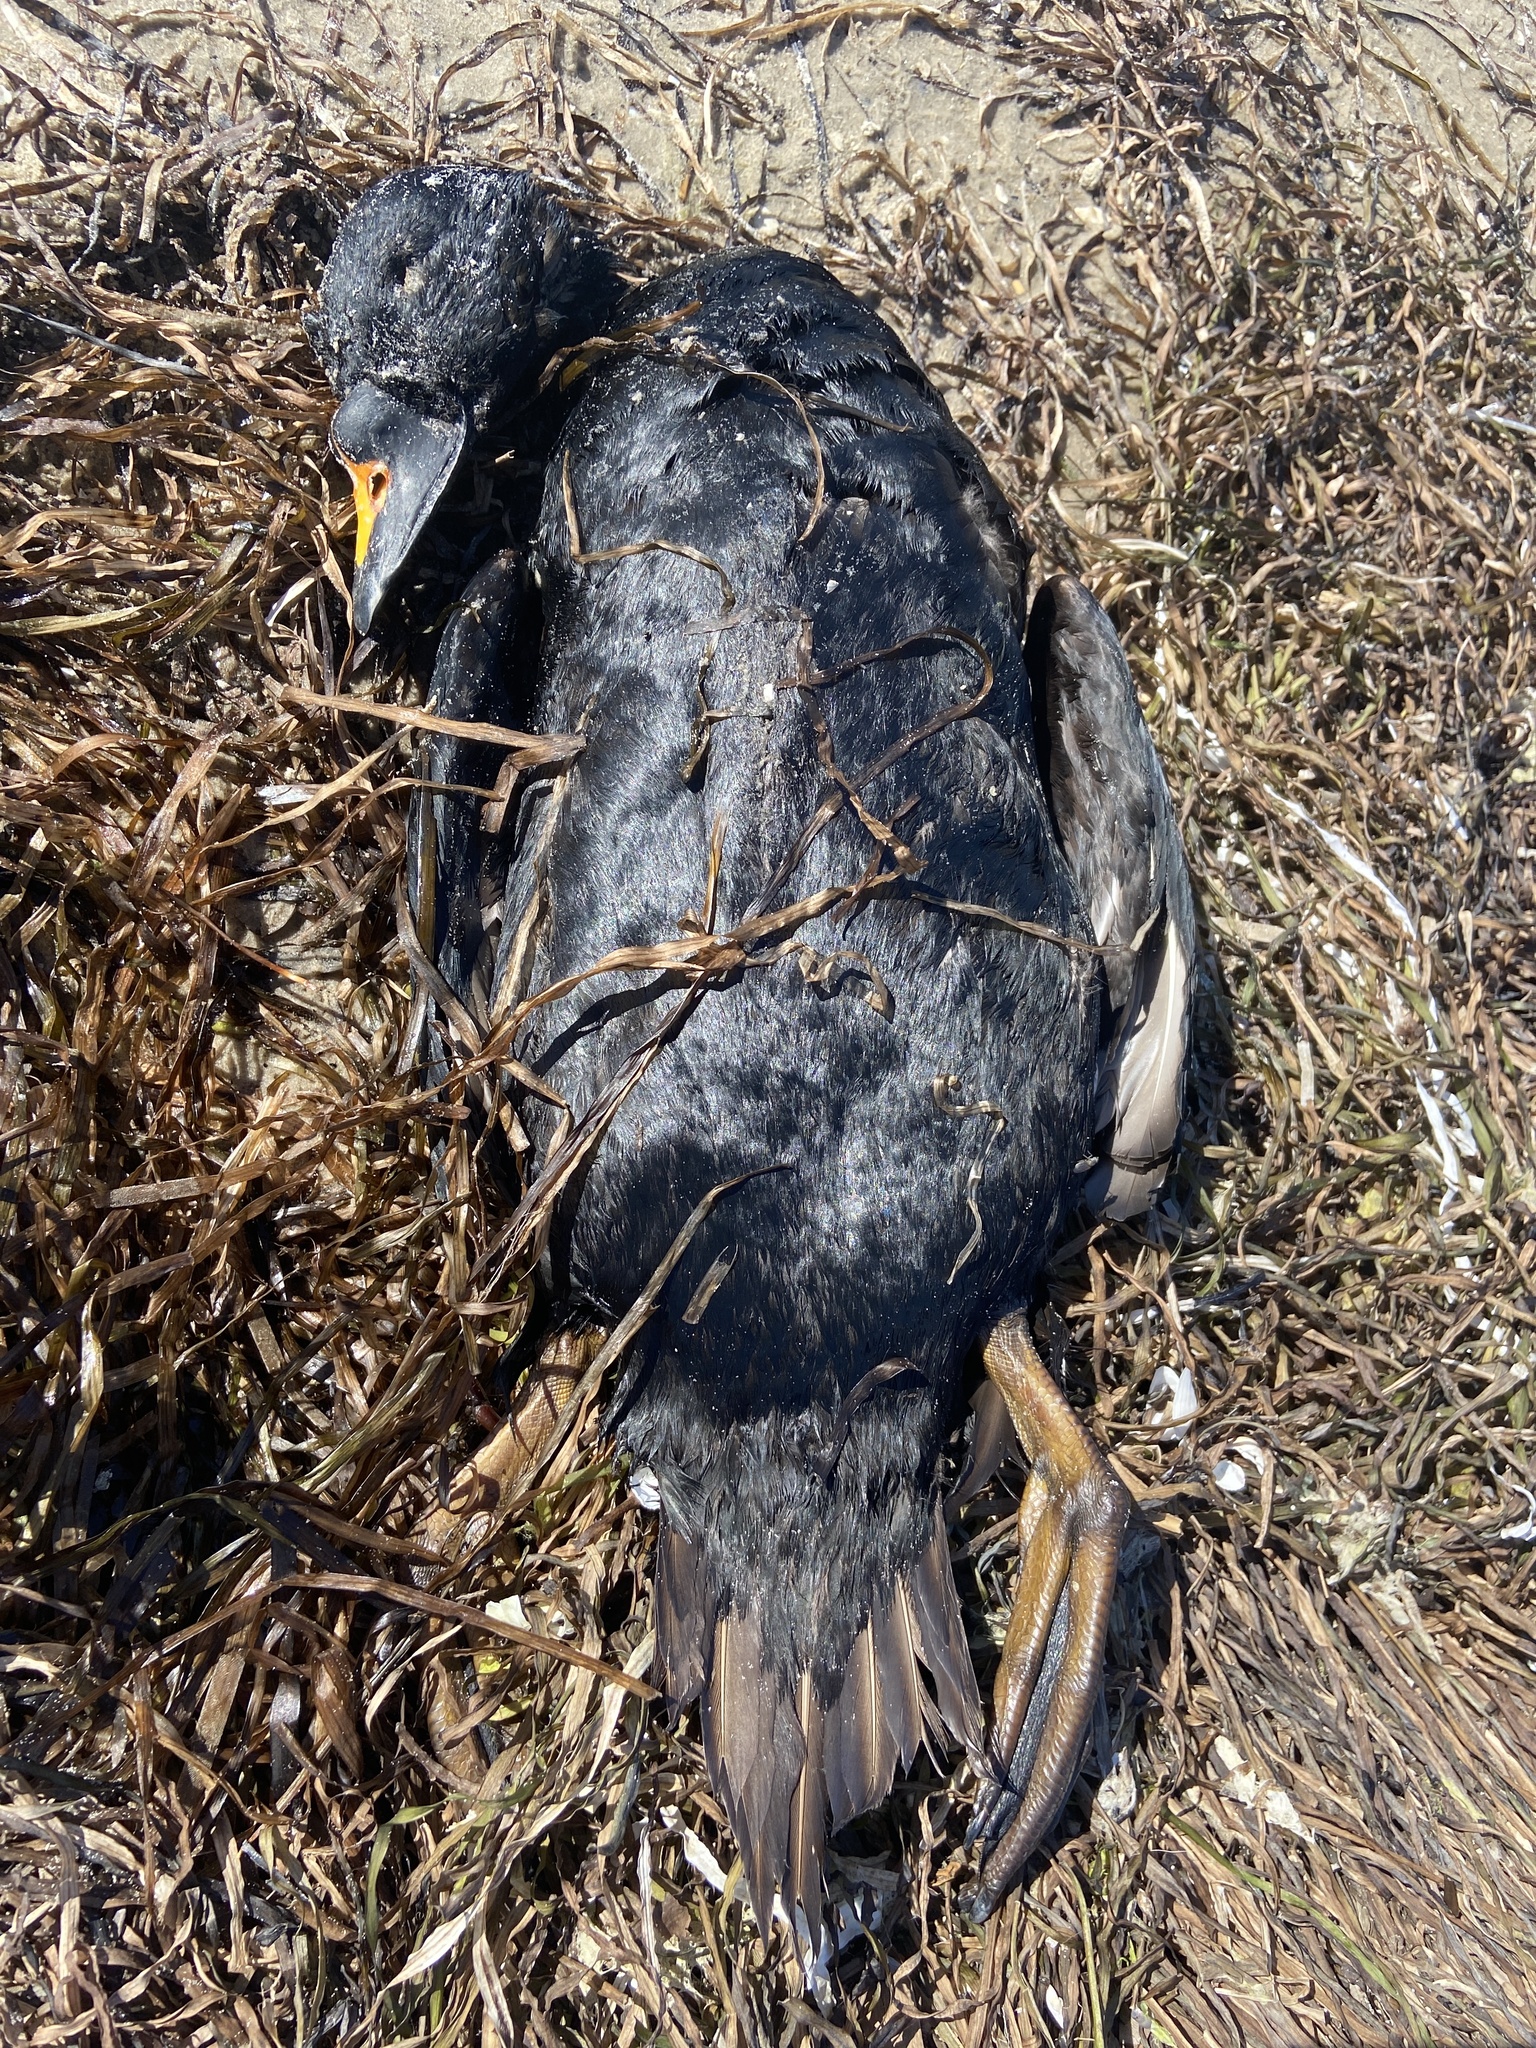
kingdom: Animalia
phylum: Chordata
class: Aves
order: Anseriformes
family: Anatidae
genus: Melanitta
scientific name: Melanitta nigra
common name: Common scoter
